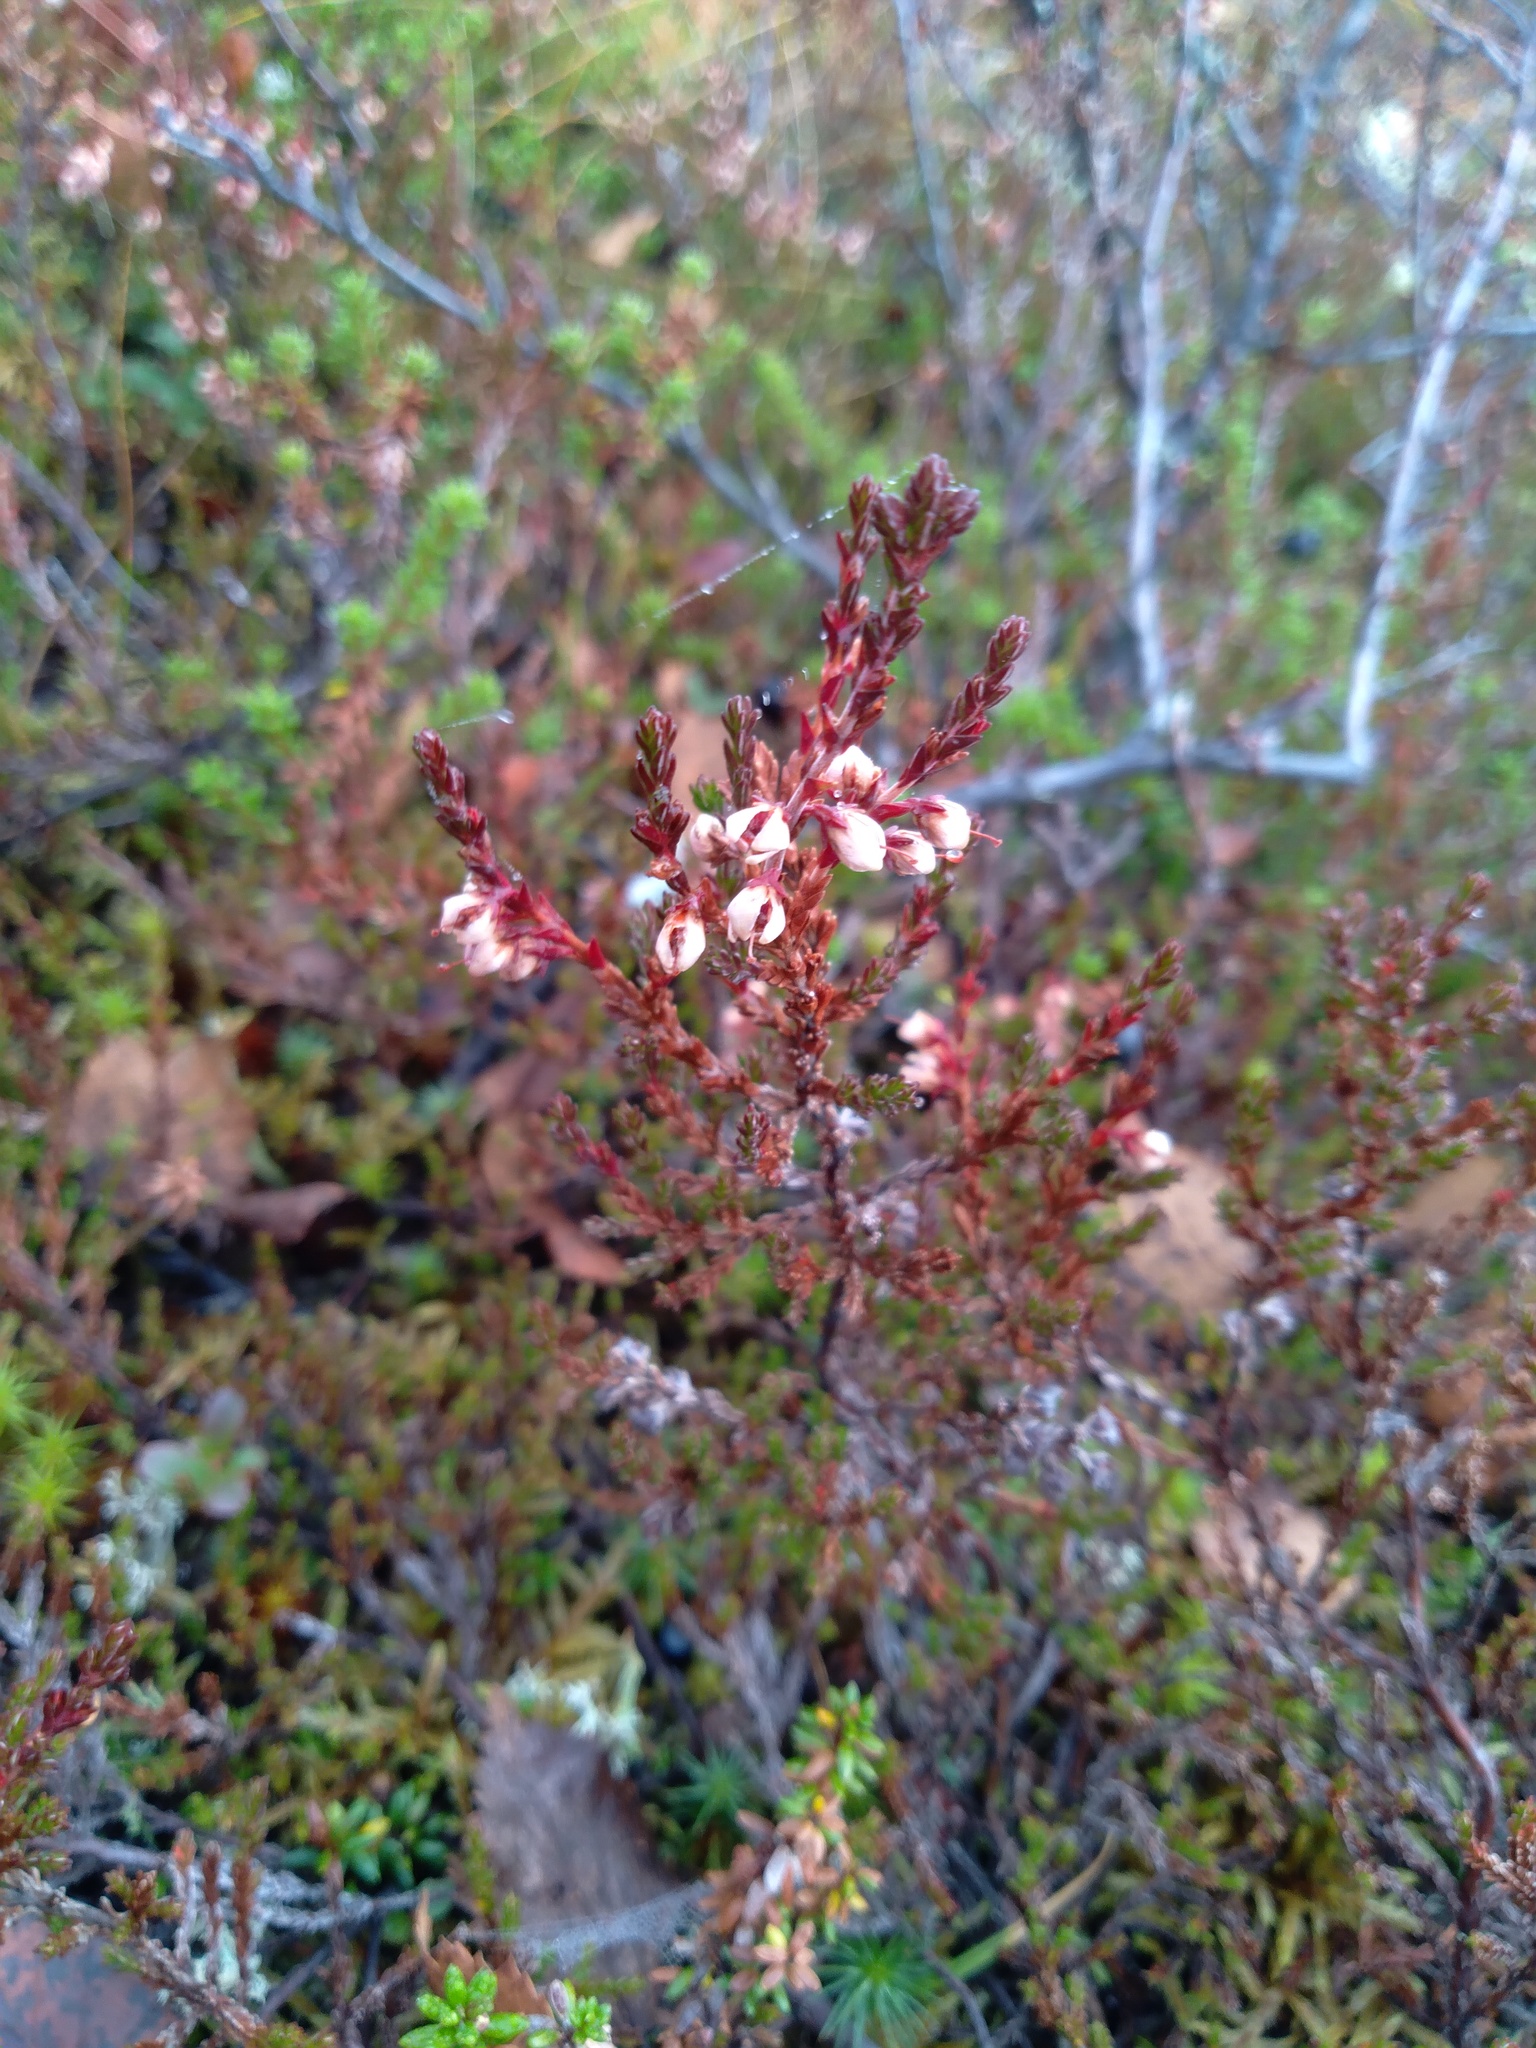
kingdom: Plantae
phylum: Tracheophyta
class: Magnoliopsida
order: Ericales
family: Ericaceae
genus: Calluna
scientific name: Calluna vulgaris
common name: Heather
